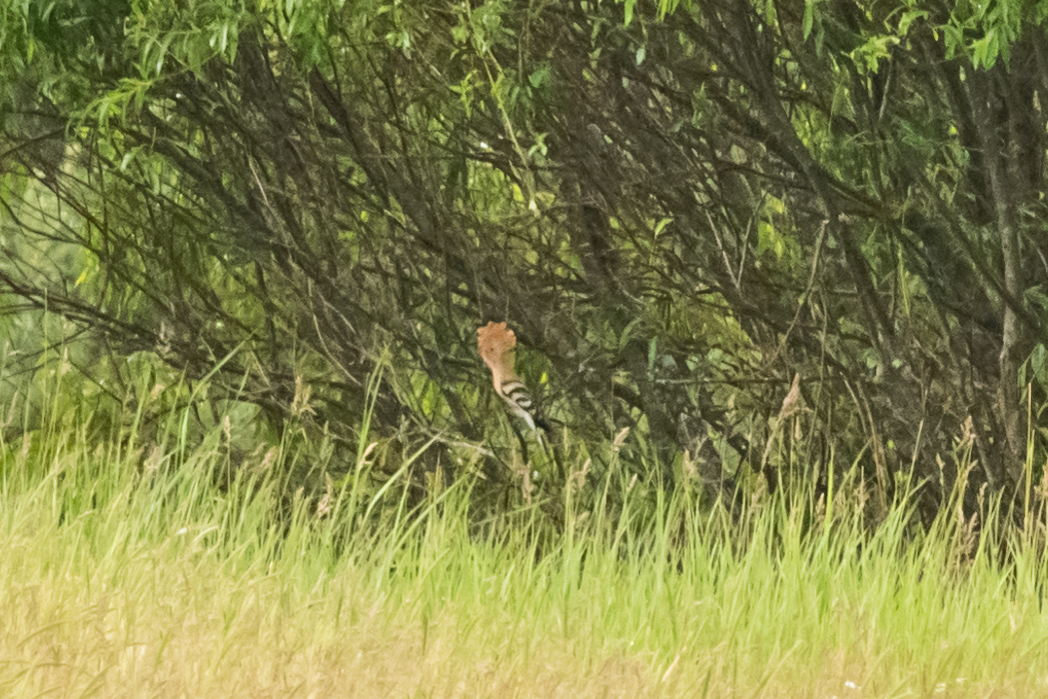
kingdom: Animalia
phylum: Chordata
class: Aves
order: Bucerotiformes
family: Upupidae
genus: Upupa
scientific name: Upupa epops
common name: Eurasian hoopoe
